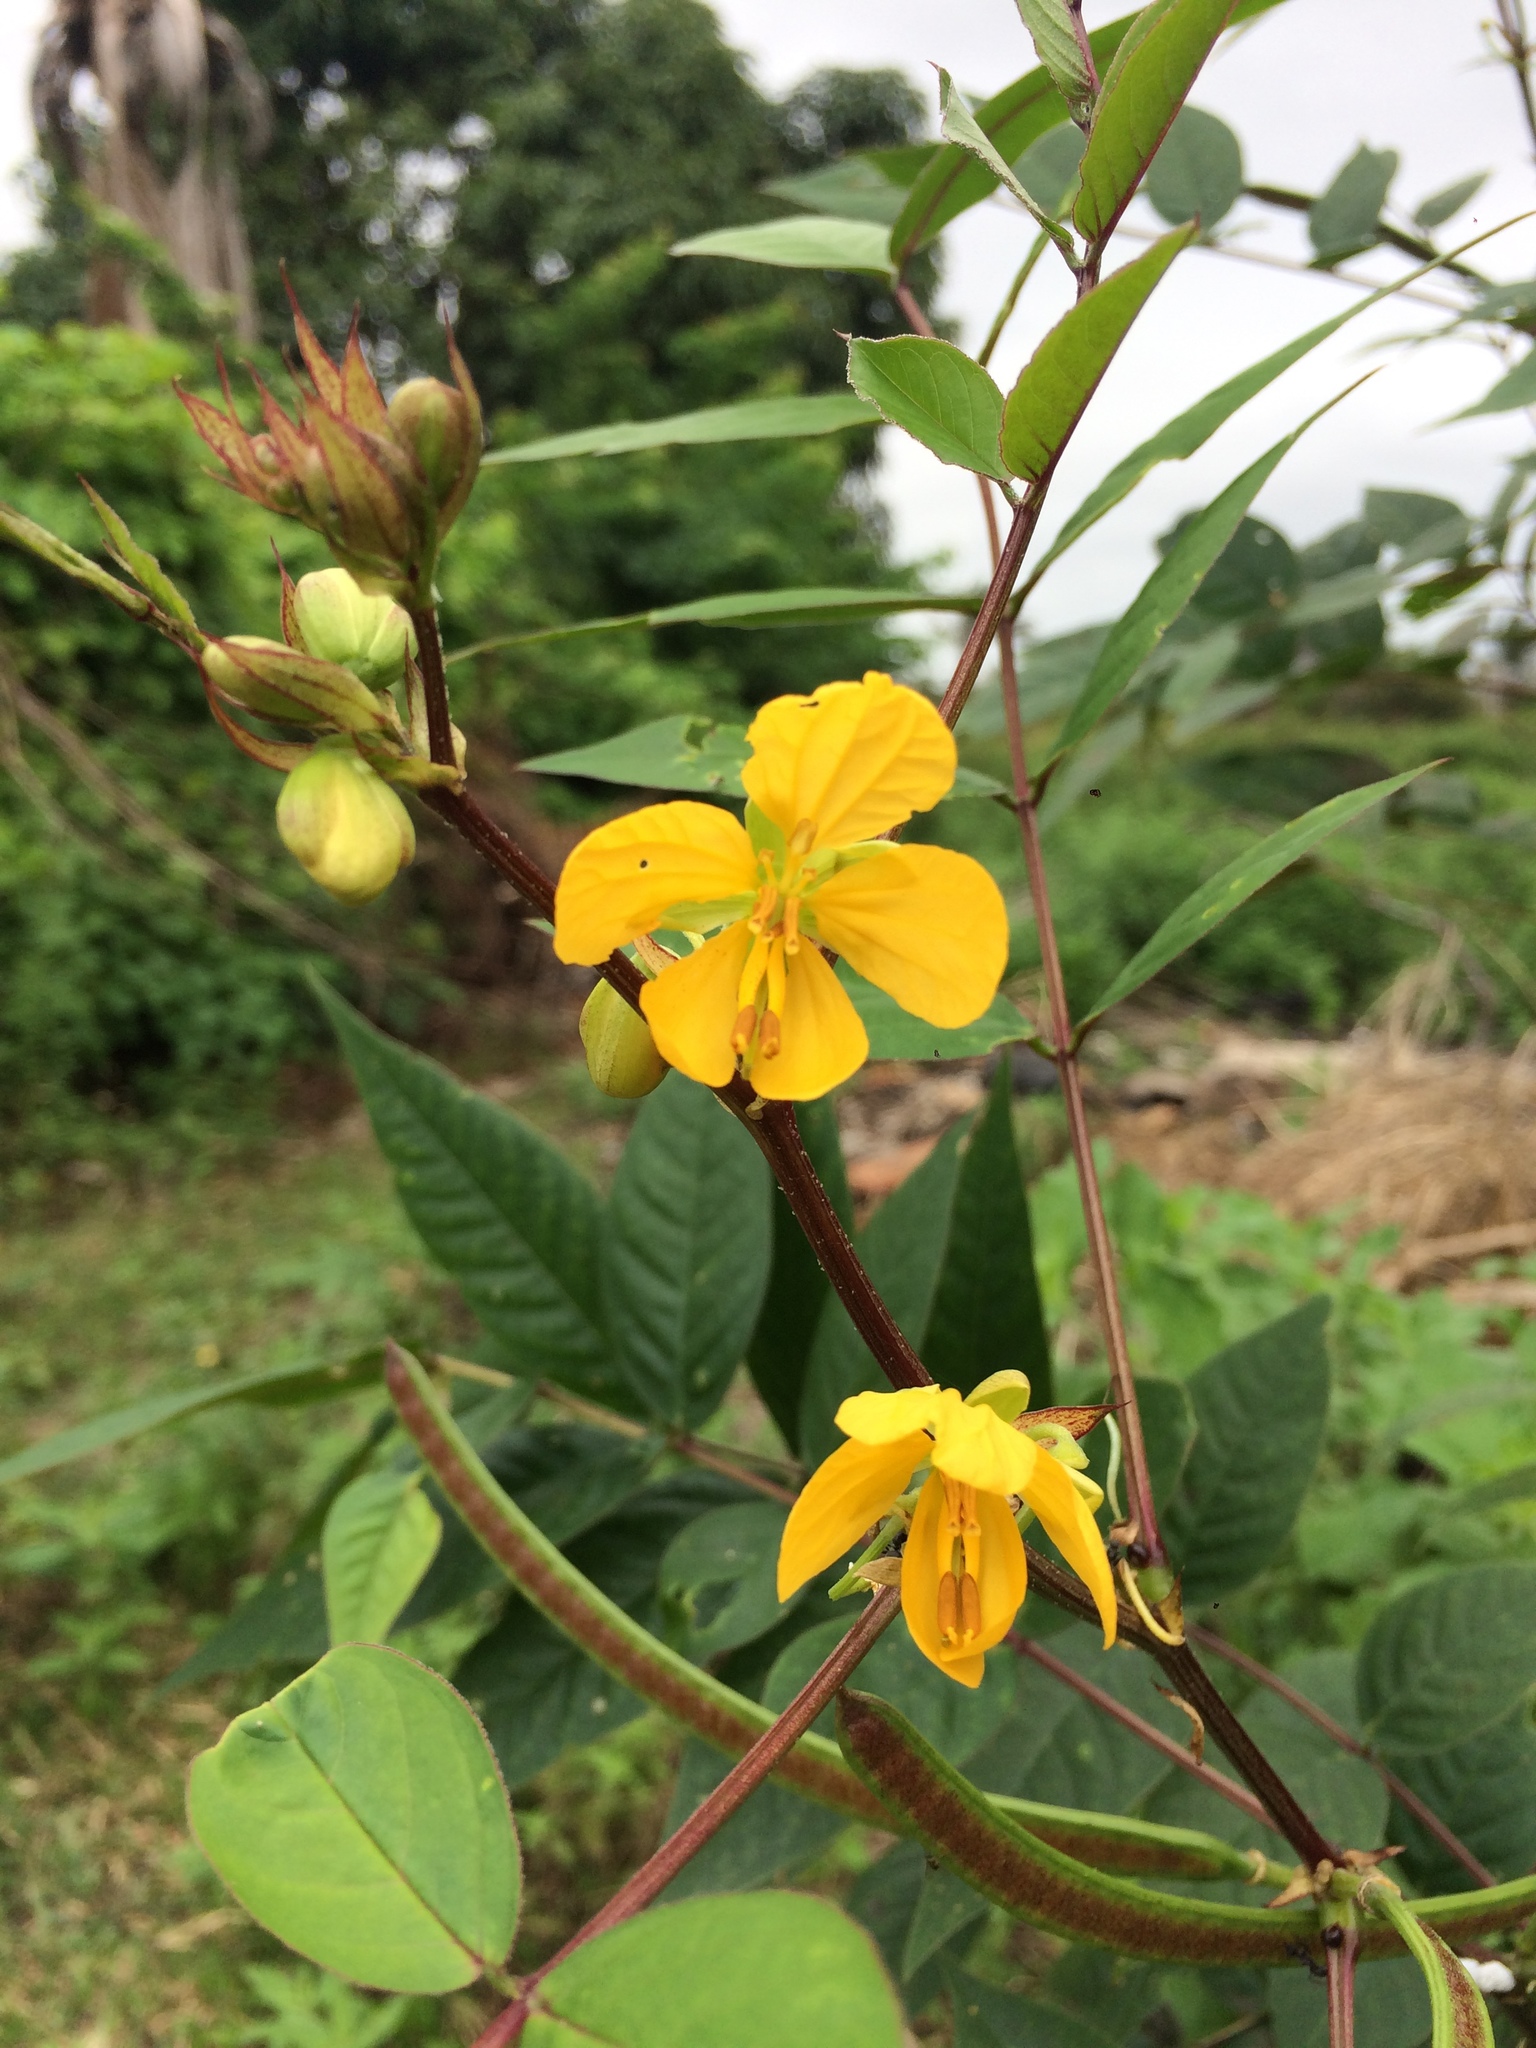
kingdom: Plantae
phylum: Tracheophyta
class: Magnoliopsida
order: Fabales
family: Fabaceae
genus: Senna
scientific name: Senna occidentalis
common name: Septicweed
